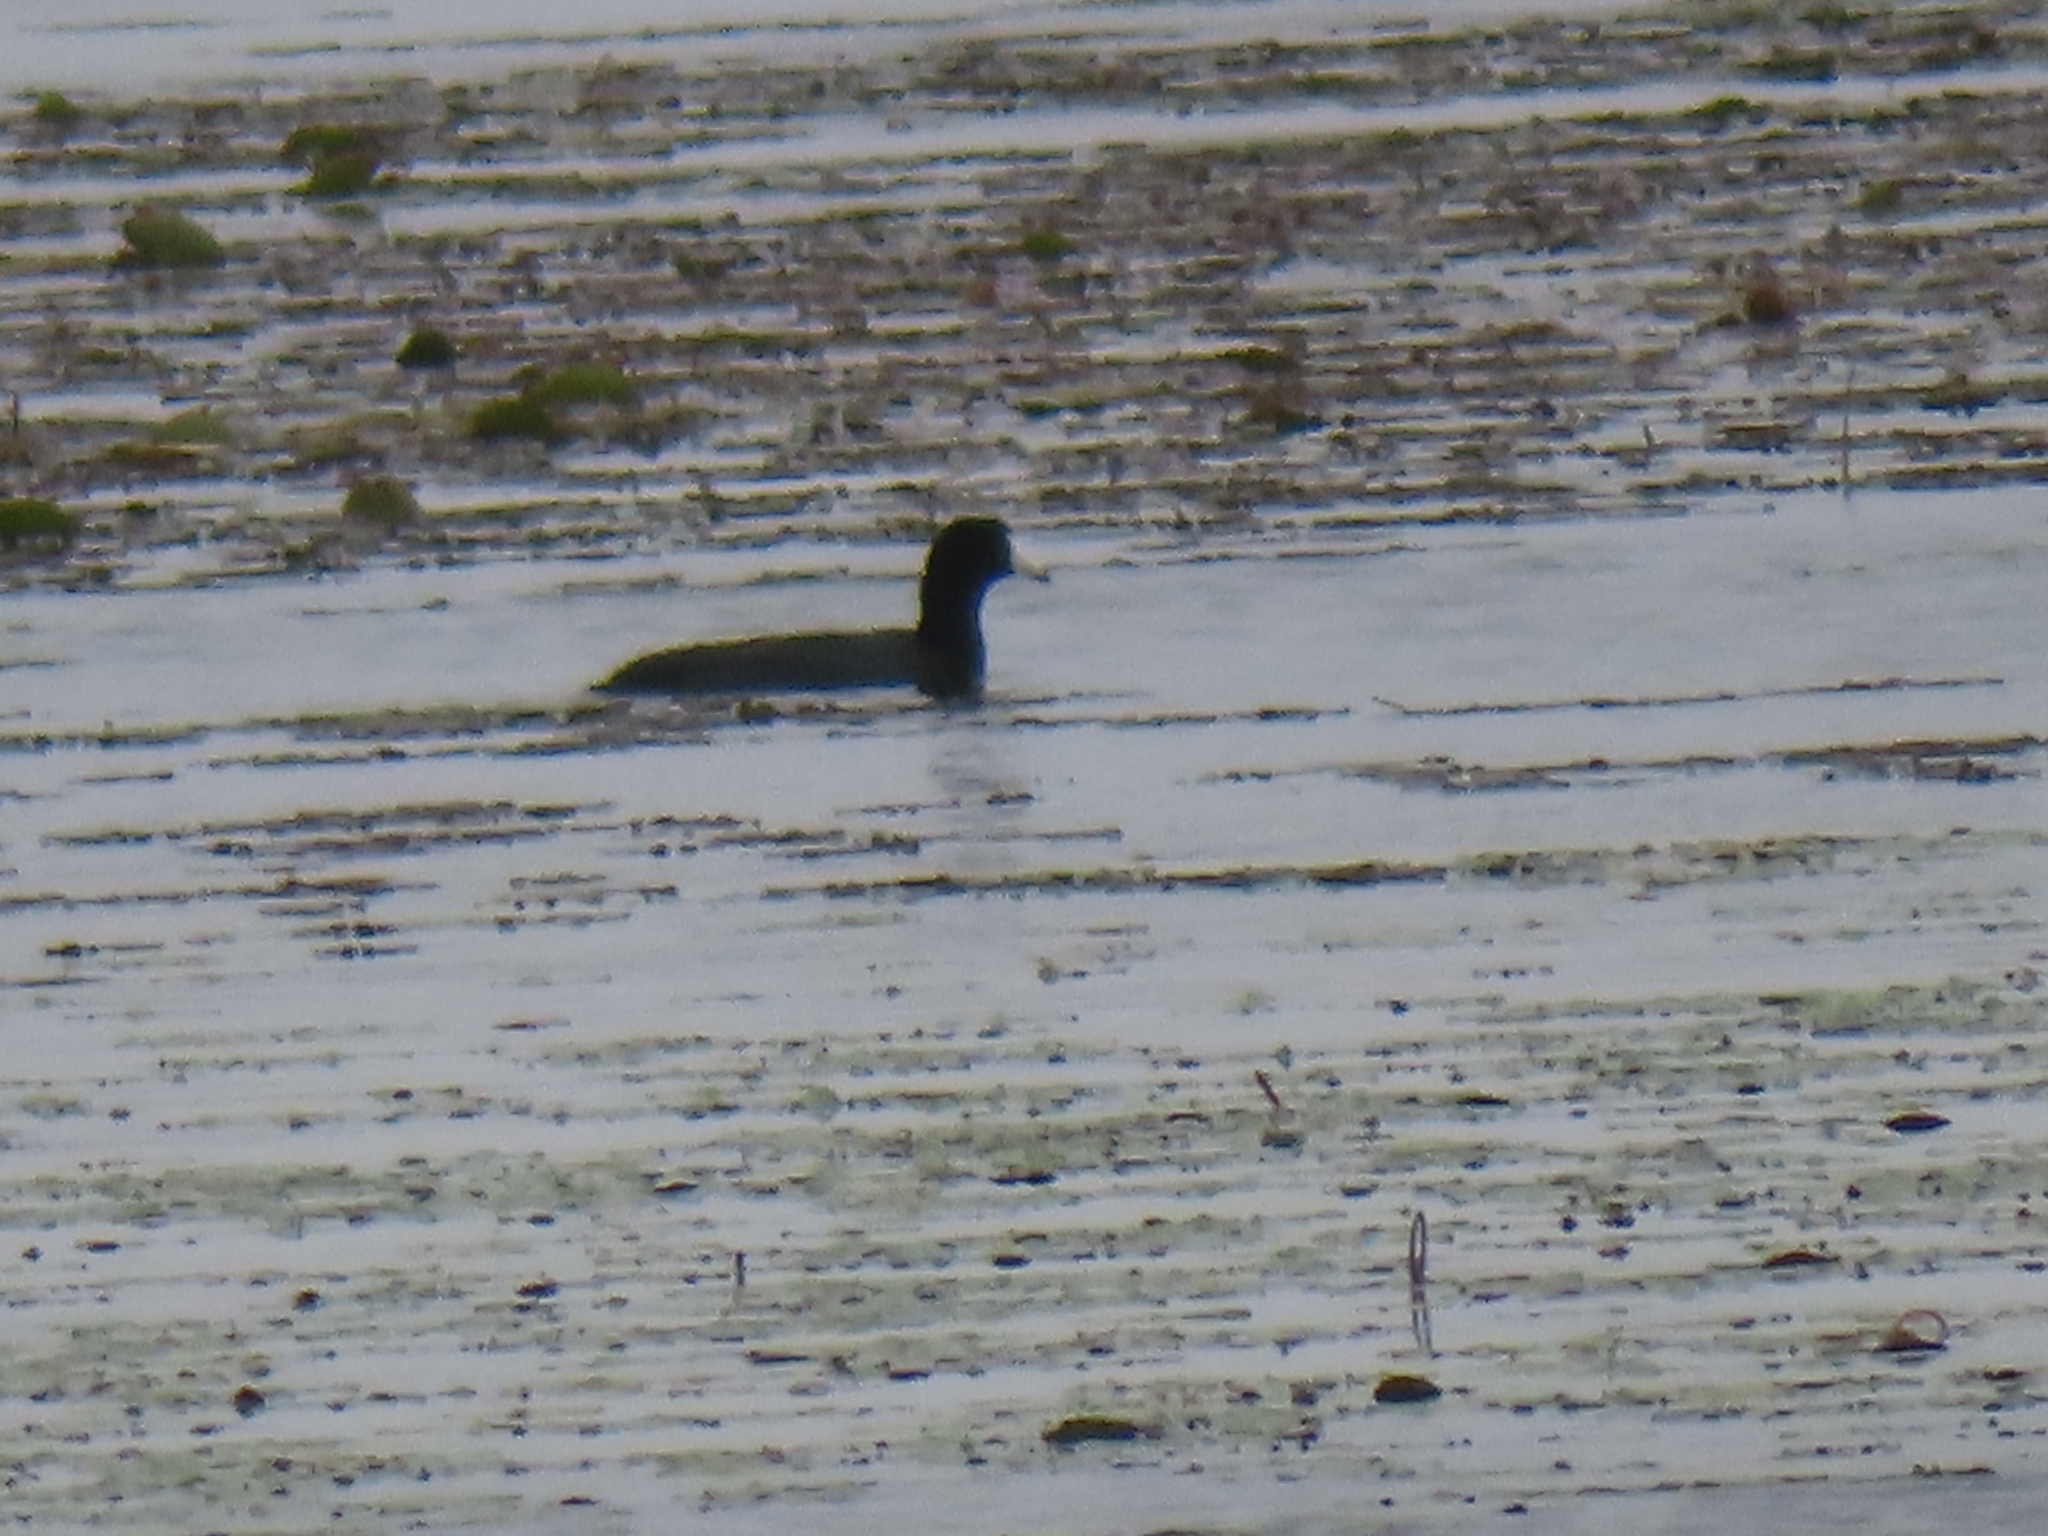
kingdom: Animalia
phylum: Chordata
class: Aves
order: Gruiformes
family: Rallidae
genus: Fulica
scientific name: Fulica americana
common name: American coot
